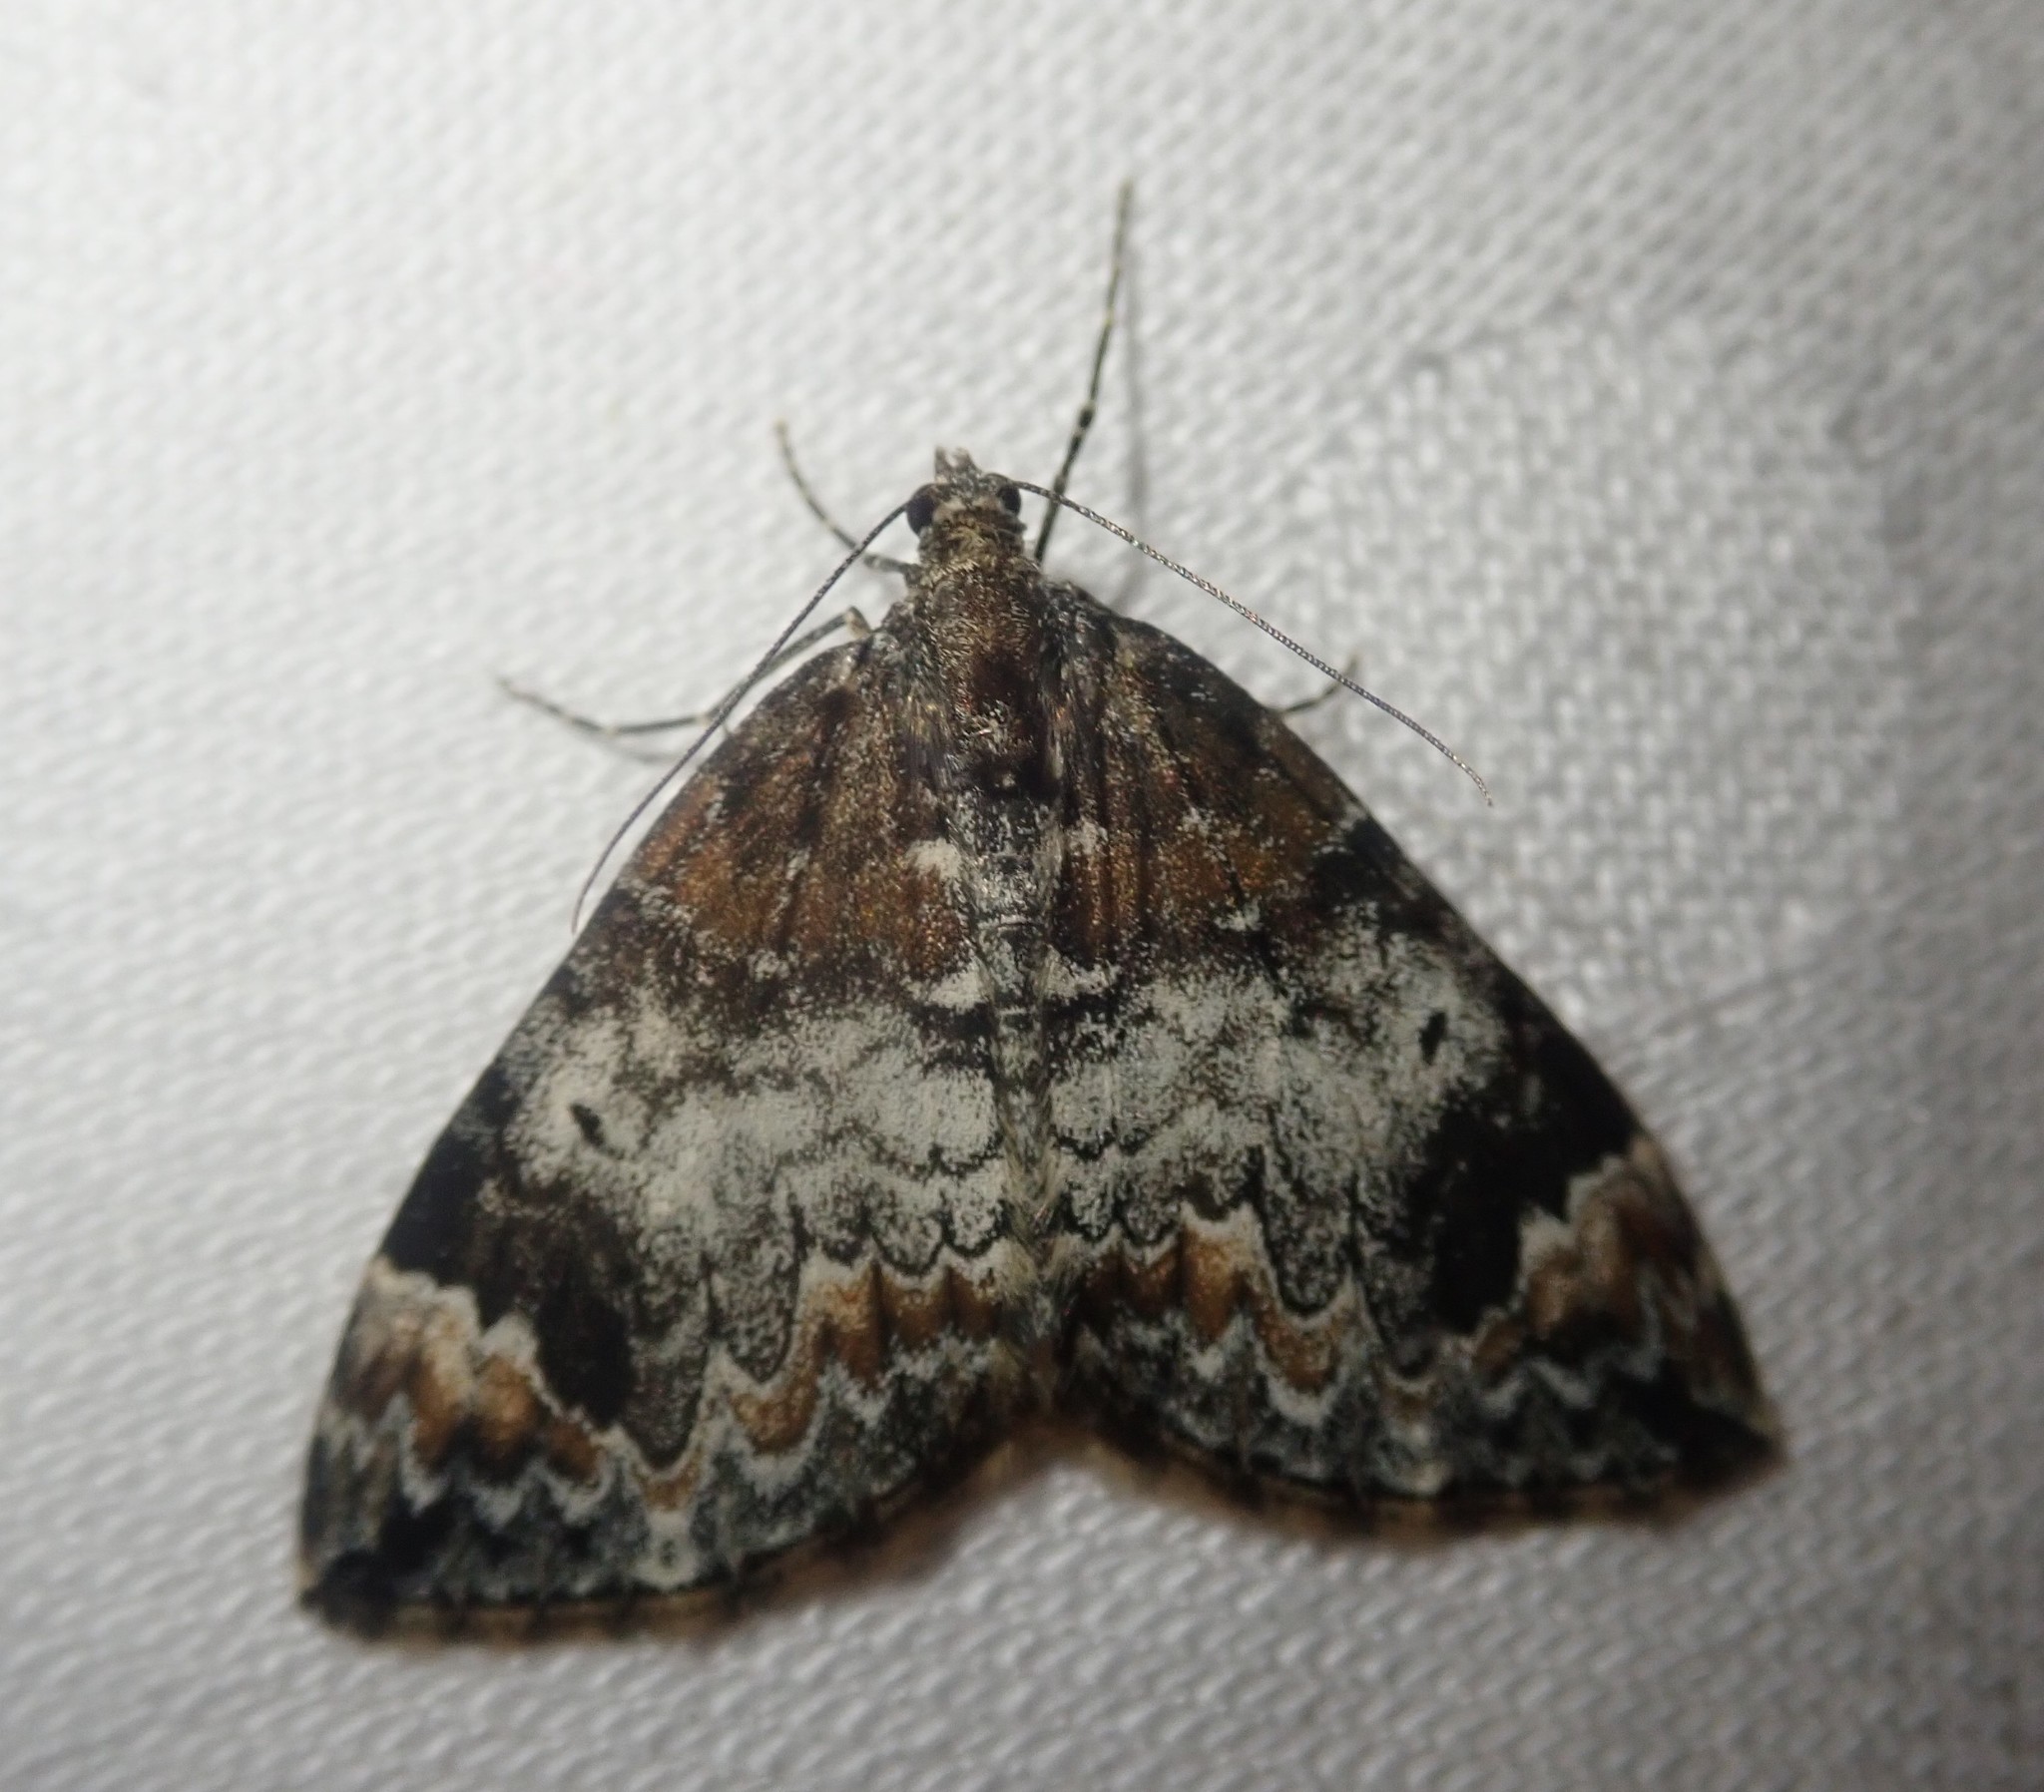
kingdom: Animalia
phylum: Arthropoda
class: Insecta
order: Lepidoptera
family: Geometridae
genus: Dysstroma
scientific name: Dysstroma truncata
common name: Common marbled carpet
